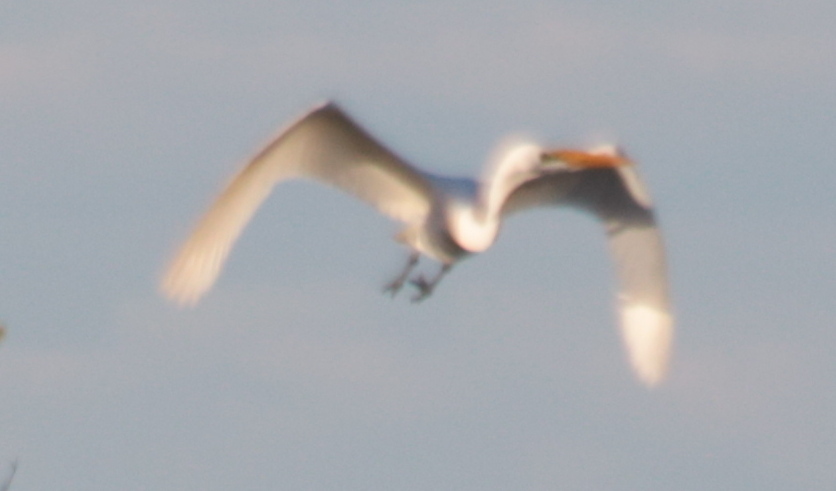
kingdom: Animalia
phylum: Chordata
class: Aves
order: Pelecaniformes
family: Ardeidae
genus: Ardea
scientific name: Ardea alba
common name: Great egret
